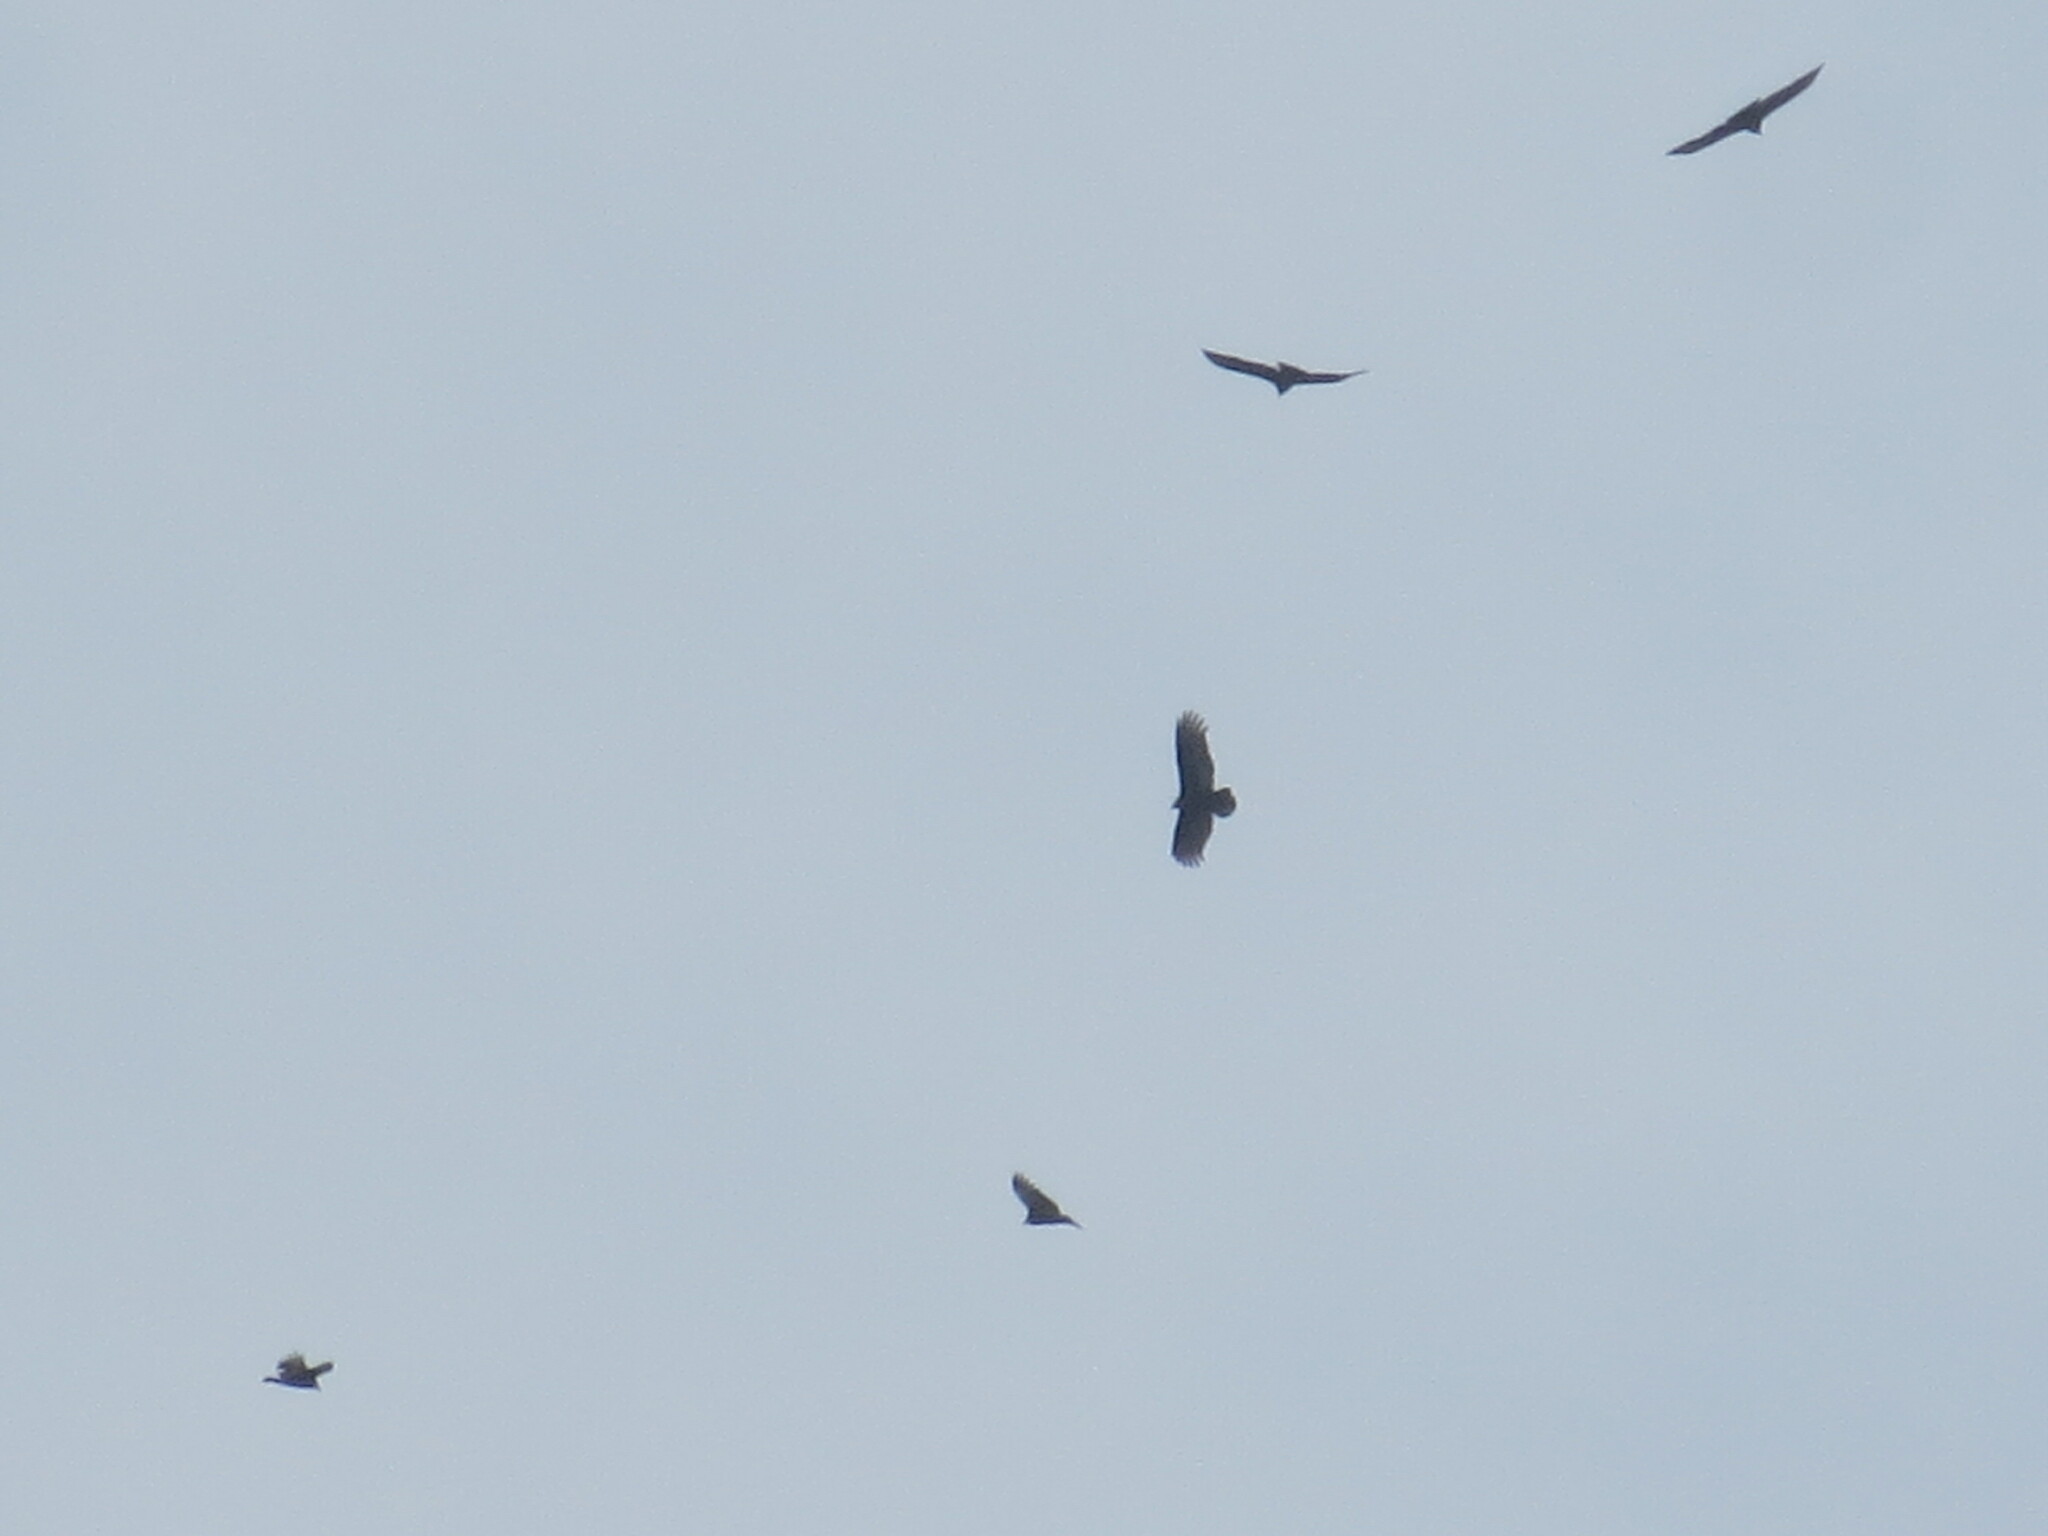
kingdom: Animalia
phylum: Chordata
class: Aves
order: Accipitriformes
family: Cathartidae
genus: Cathartes
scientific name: Cathartes aura
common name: Turkey vulture
